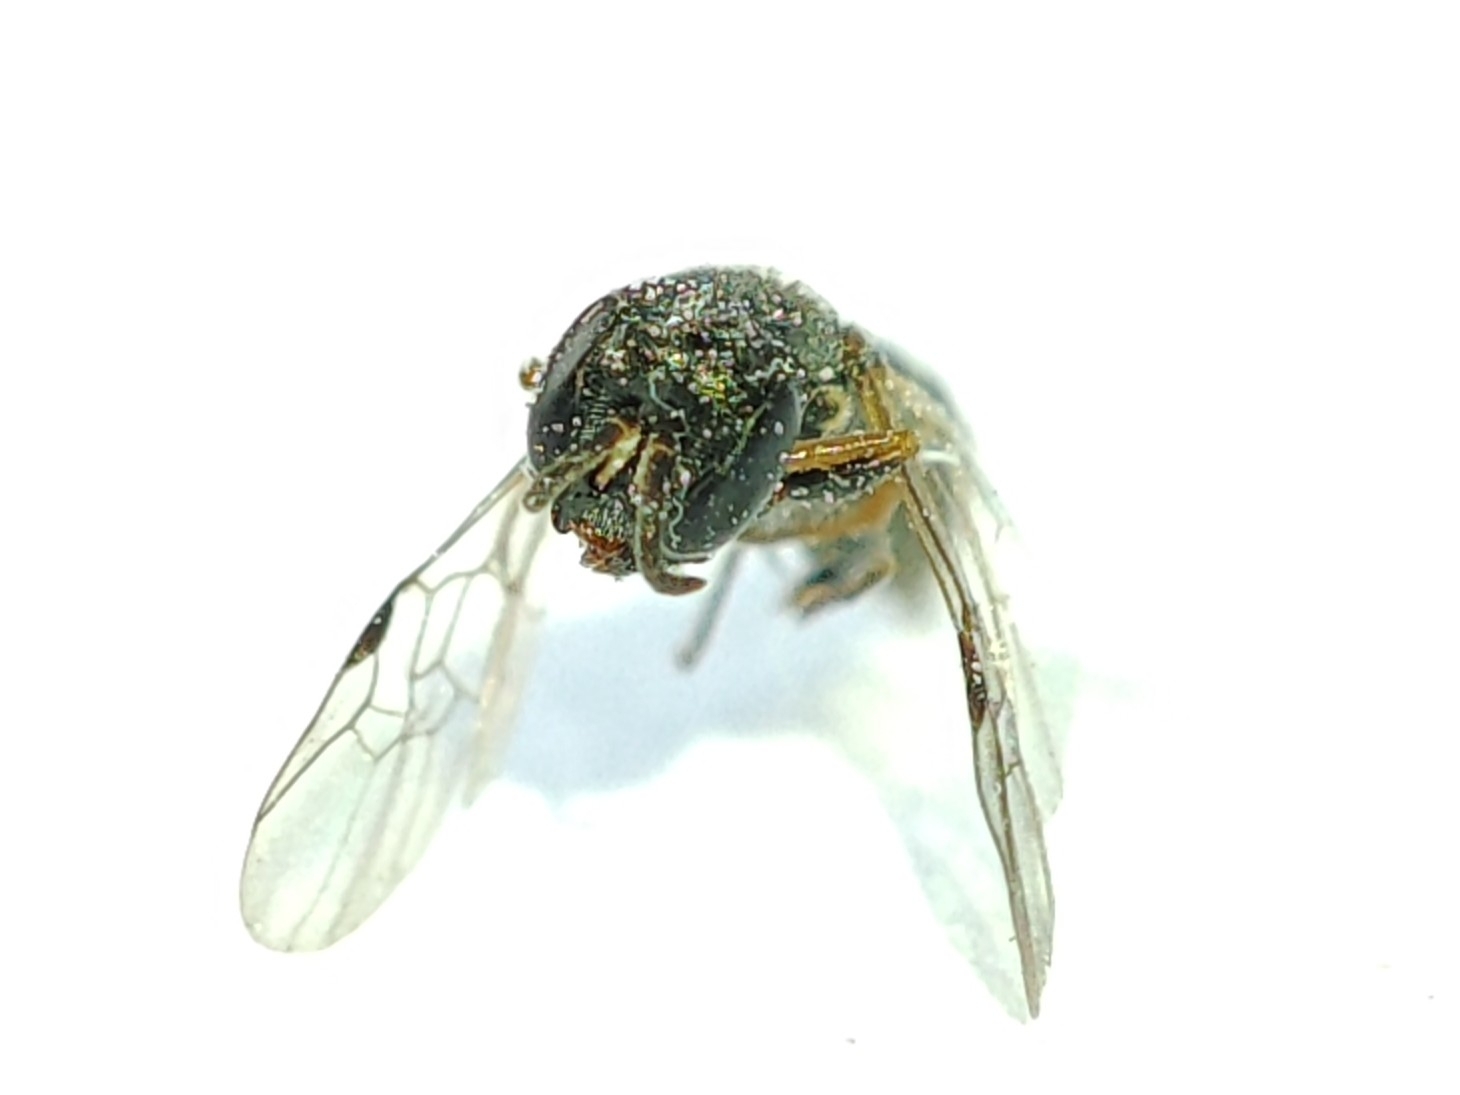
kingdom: Animalia
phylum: Arthropoda
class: Insecta
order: Hymenoptera
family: Crabronidae
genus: Polemistus
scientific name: Polemistus abnormis
